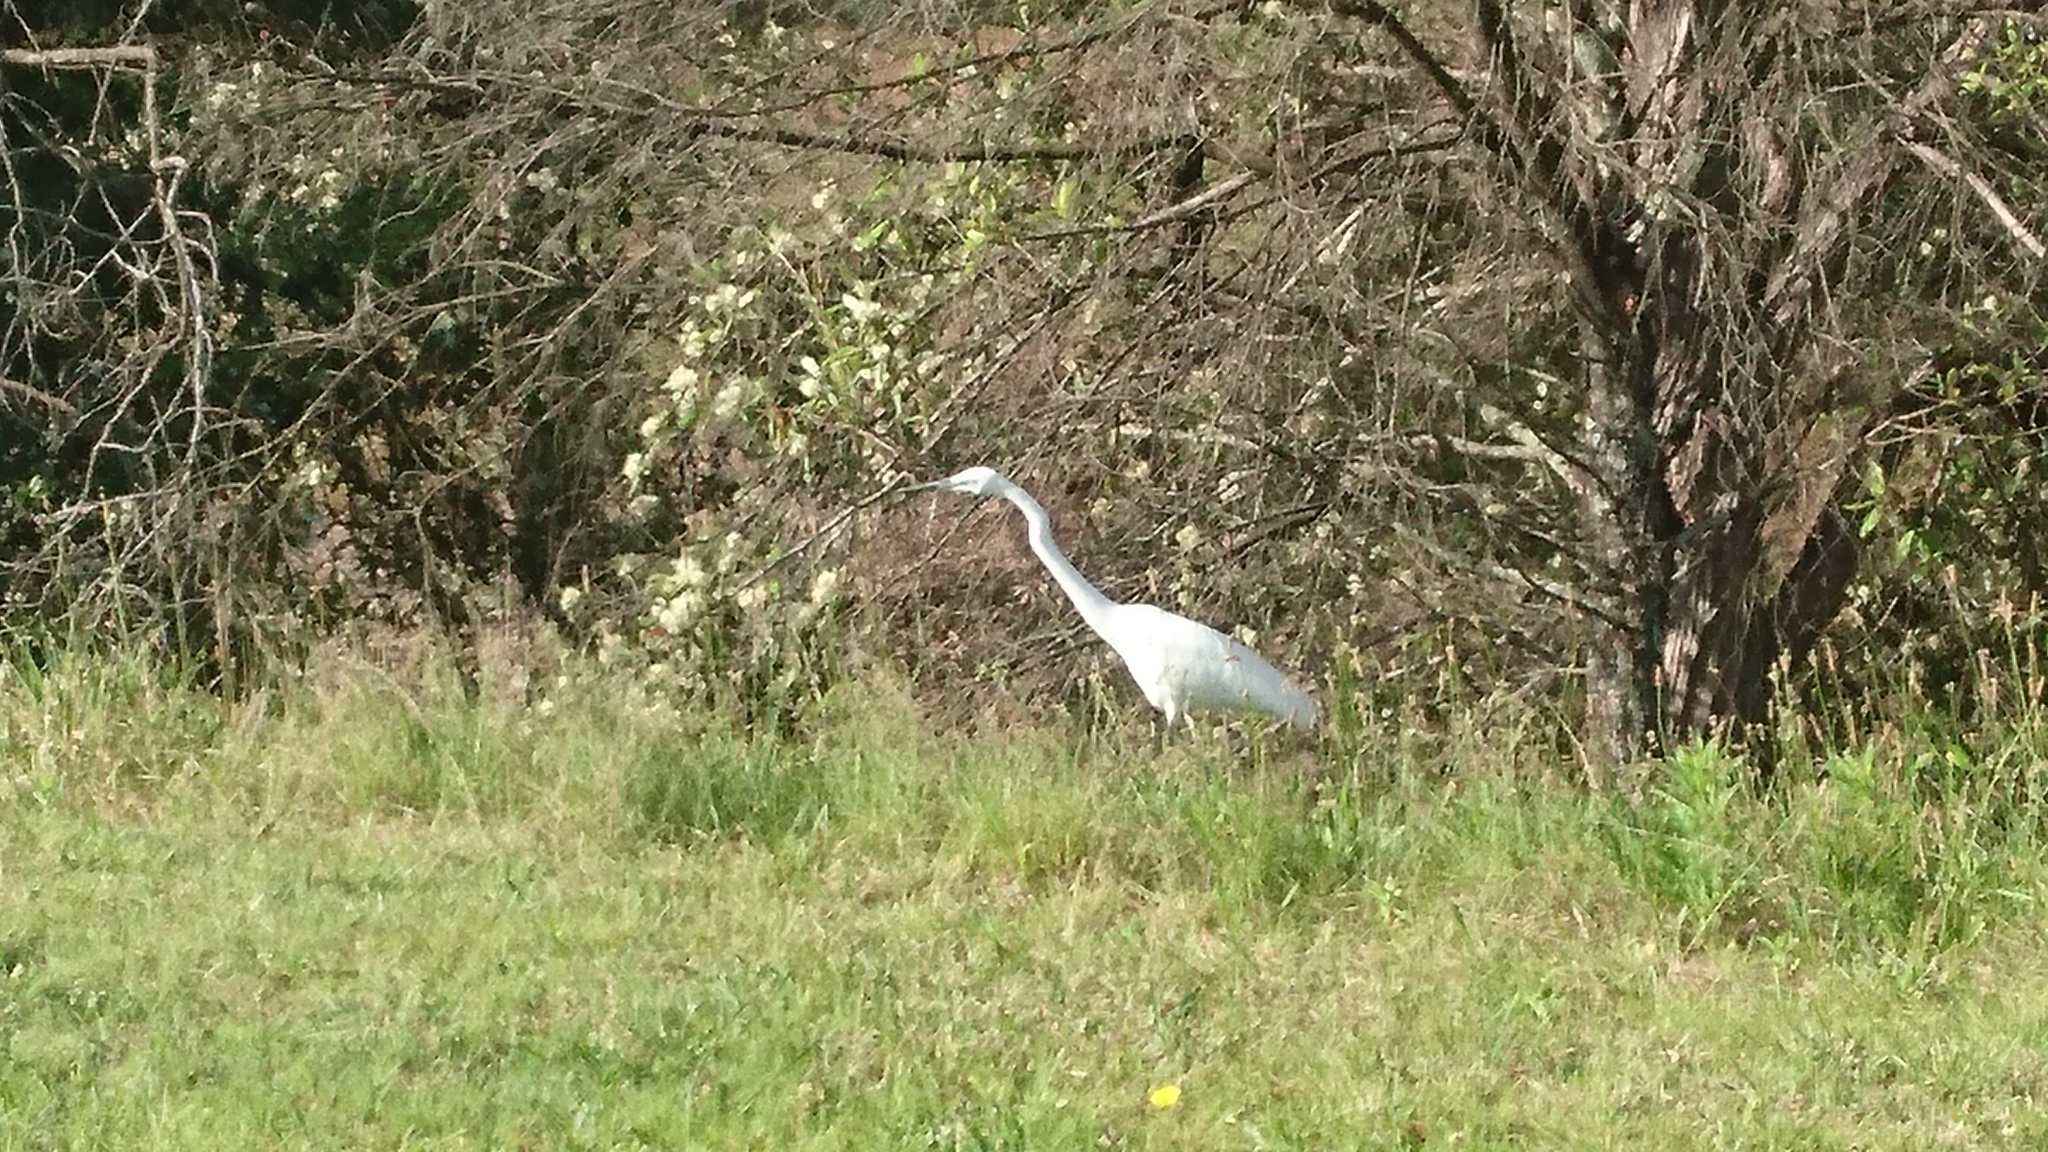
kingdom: Animalia
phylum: Chordata
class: Aves
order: Pelecaniformes
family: Ardeidae
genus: Ardea
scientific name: Ardea alba
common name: Great egret
